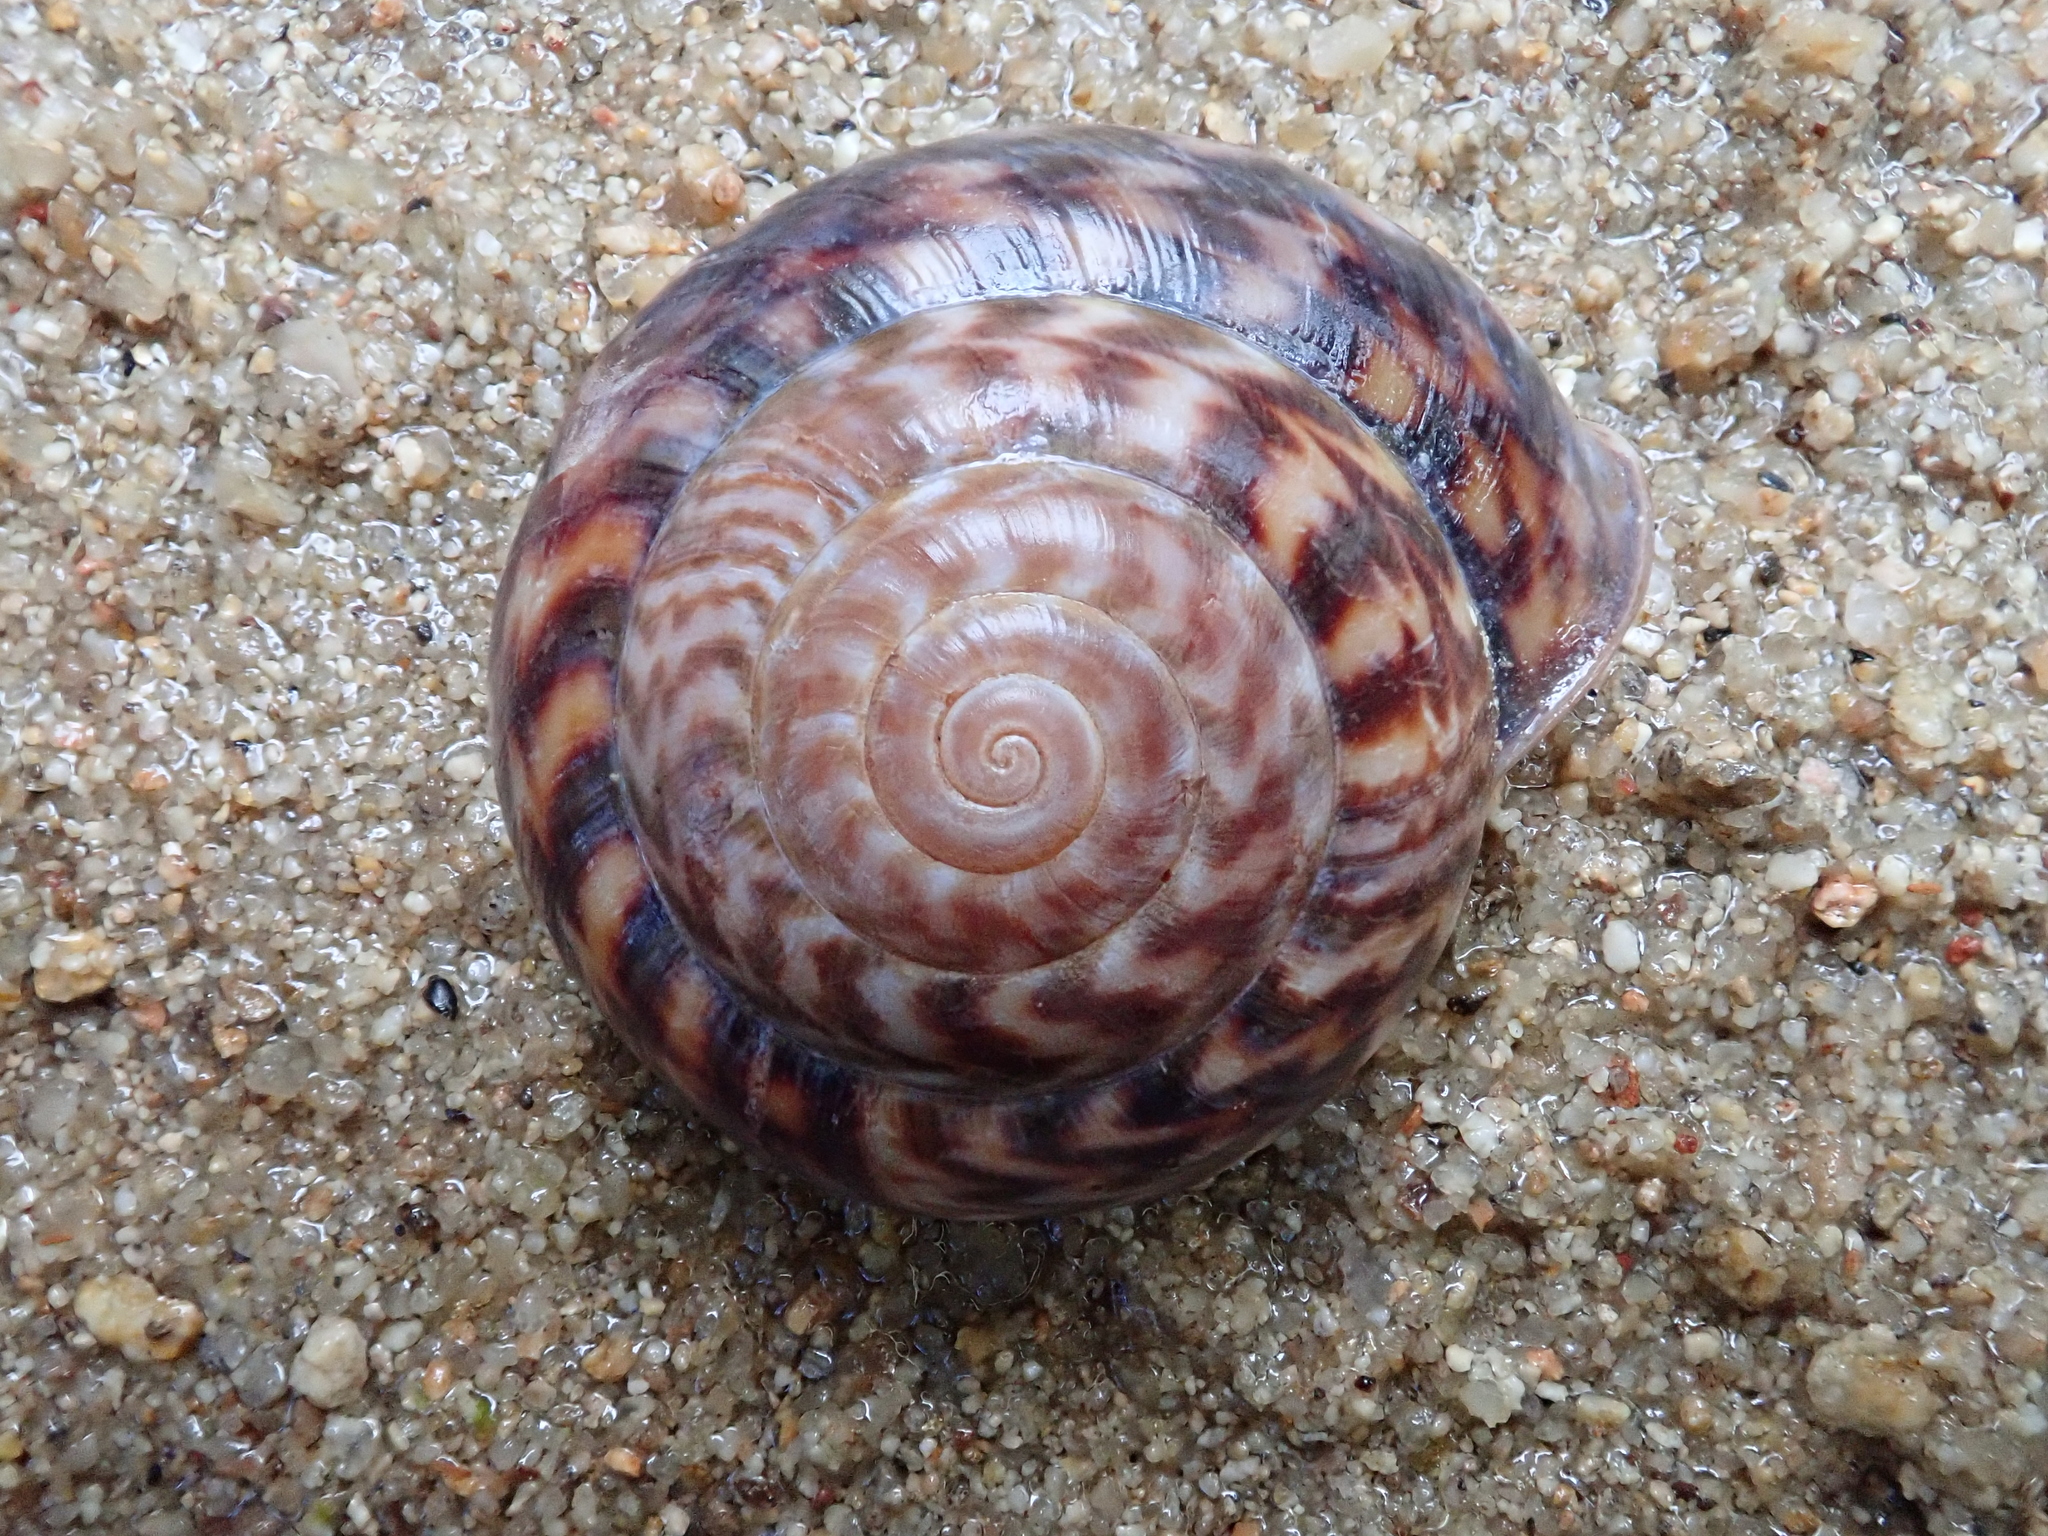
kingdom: Animalia
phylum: Mollusca
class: Gastropoda
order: Stylommatophora
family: Solaropsidae
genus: Solaropsis
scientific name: Solaropsis fairchildi
